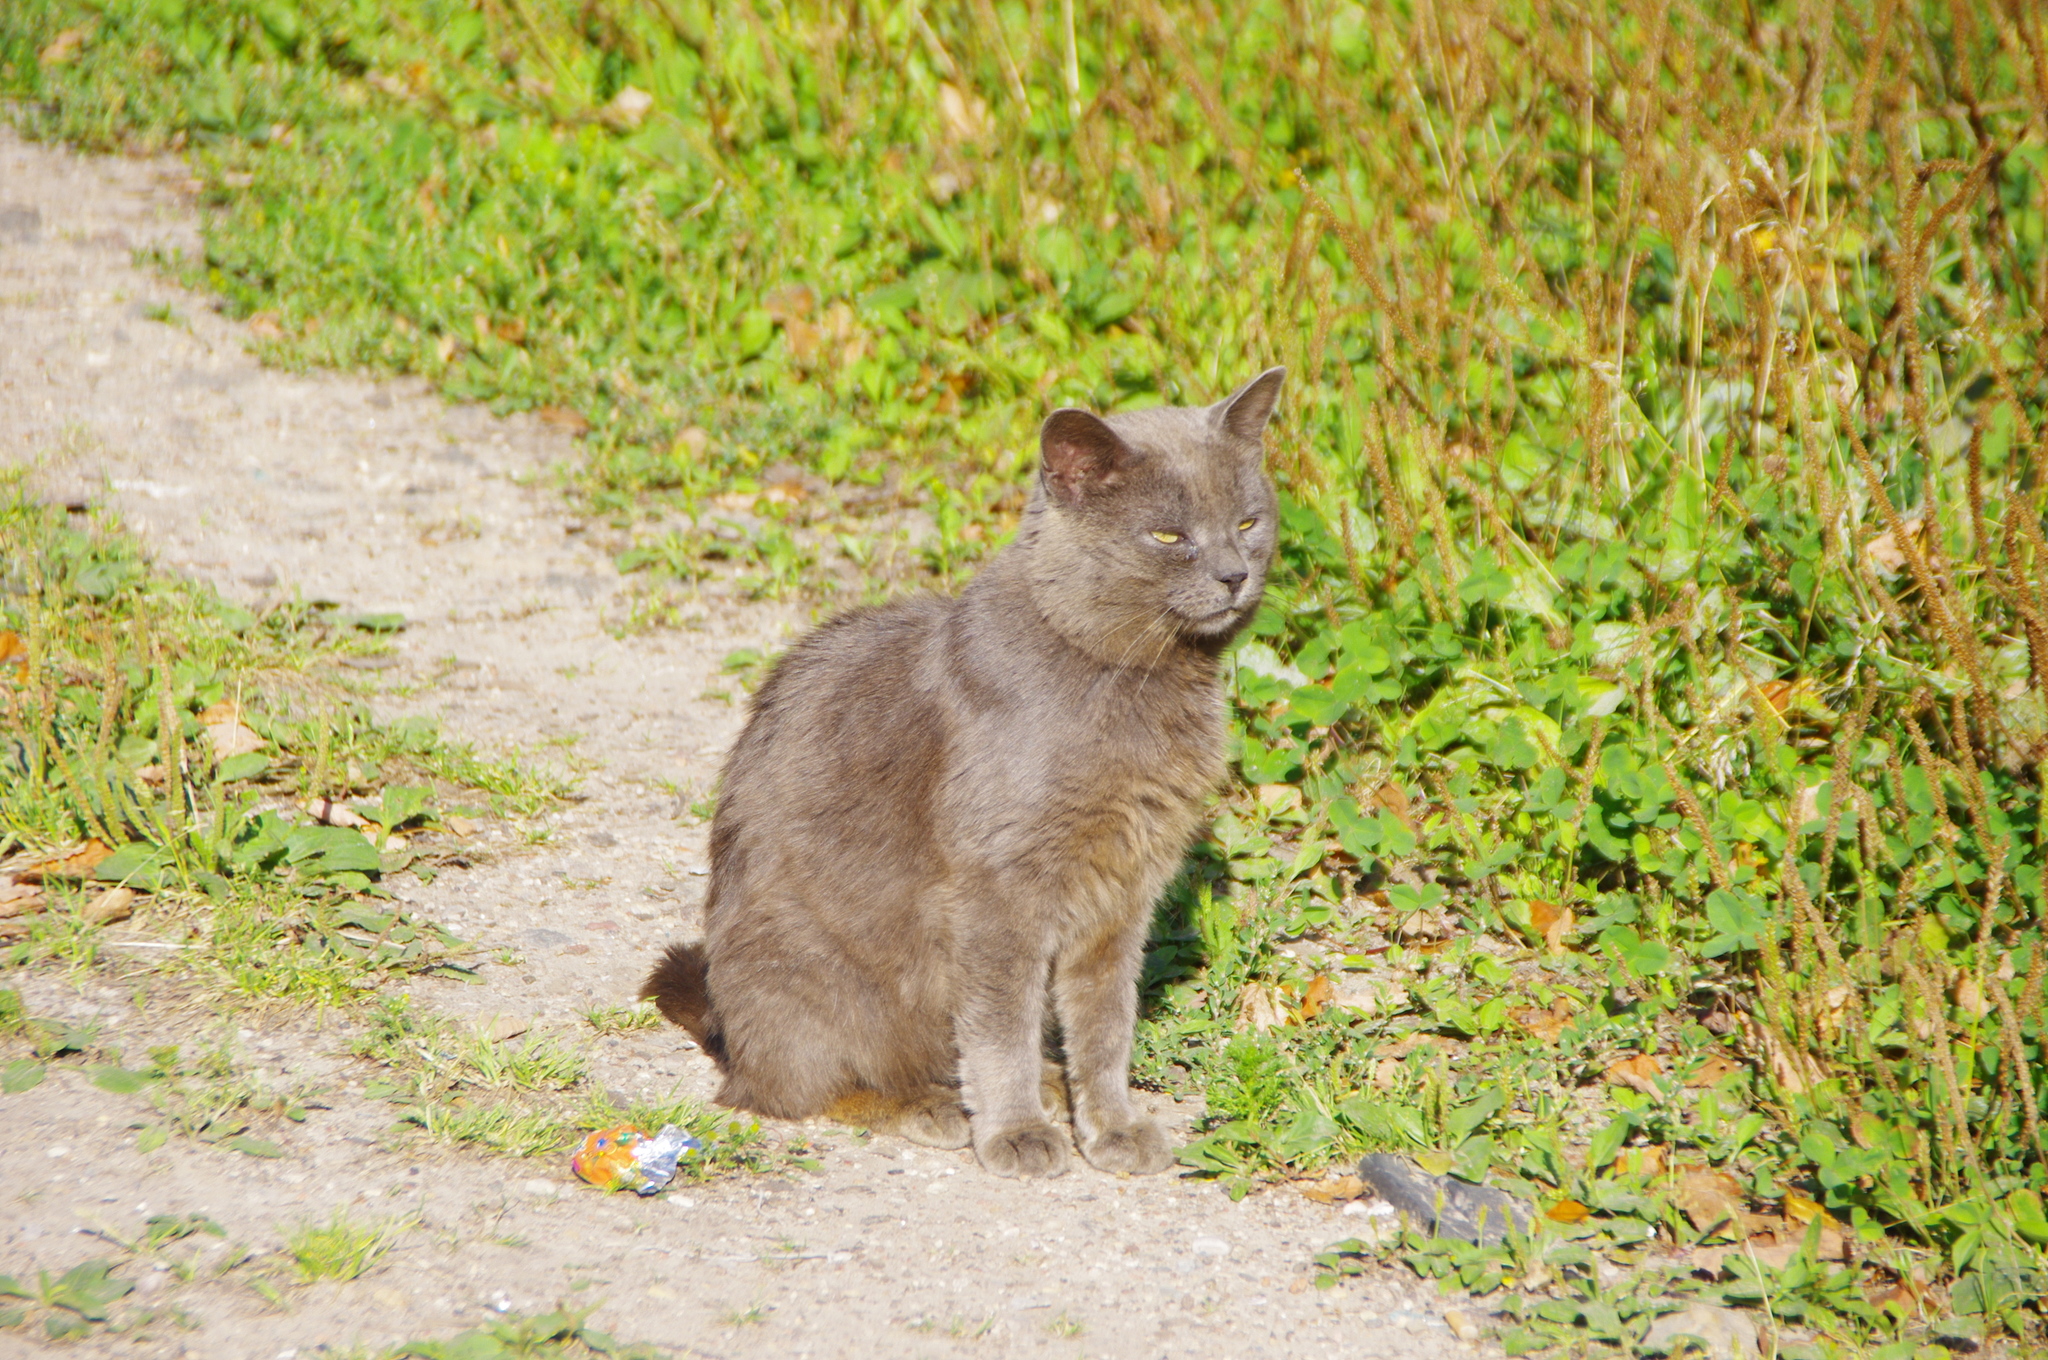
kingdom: Animalia
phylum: Chordata
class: Mammalia
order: Carnivora
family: Felidae
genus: Felis
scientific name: Felis catus
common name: Domestic cat
